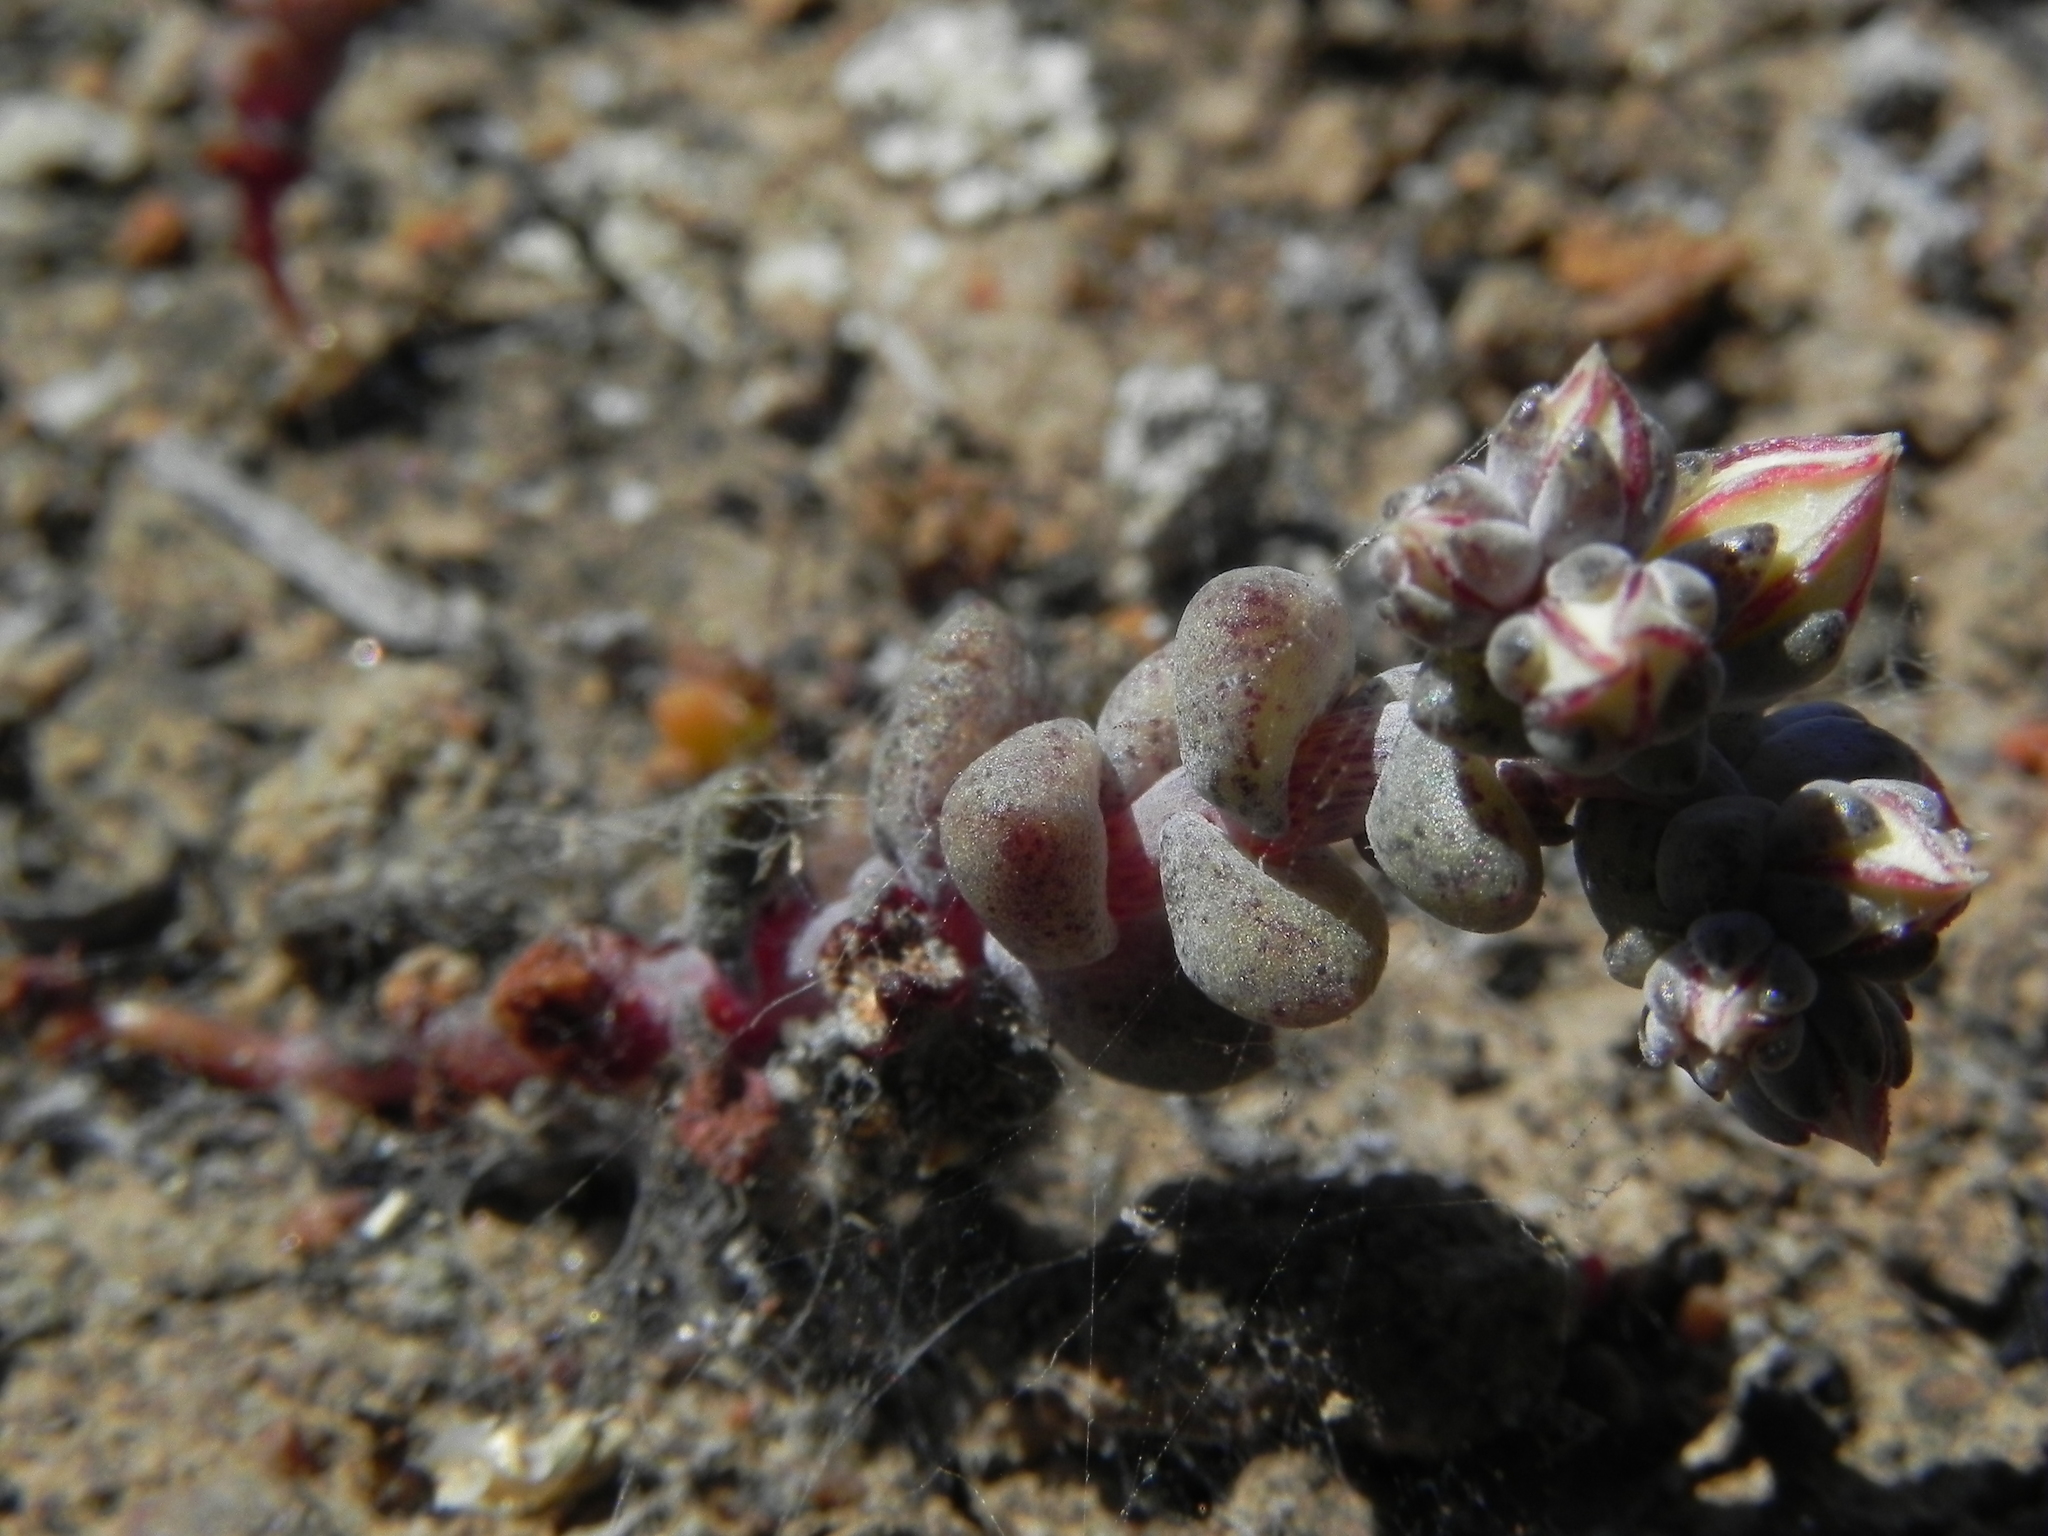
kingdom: Plantae
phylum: Tracheophyta
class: Magnoliopsida
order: Saxifragales
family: Crassulaceae
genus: Dudleya
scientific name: Dudleya blochmaniae
